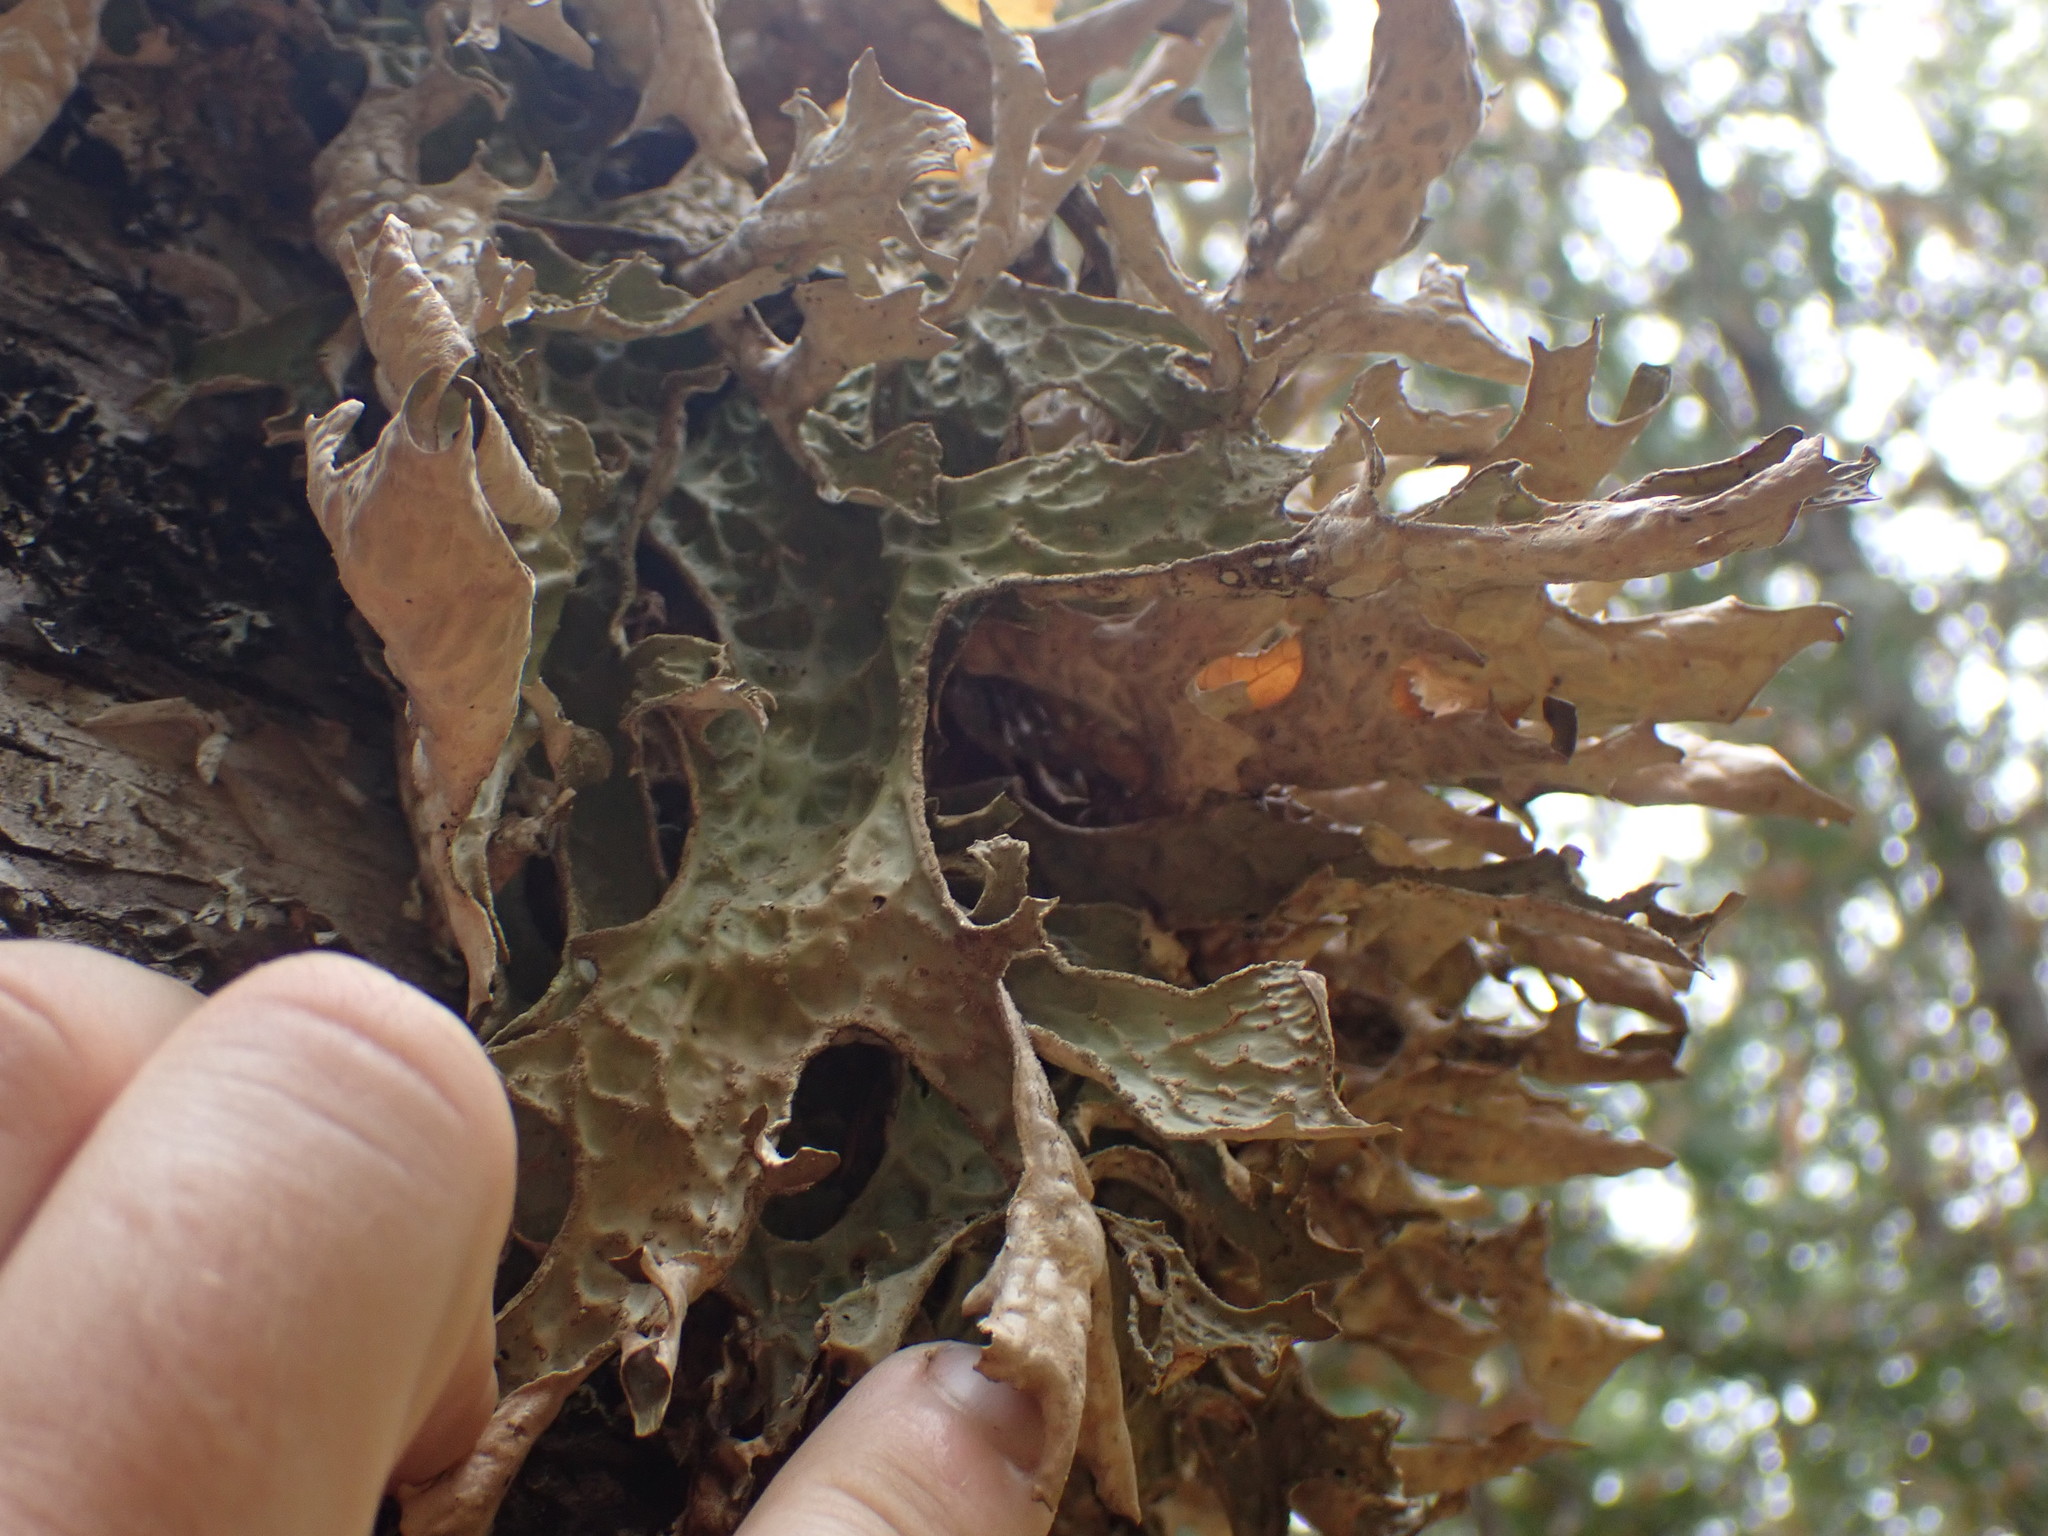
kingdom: Fungi
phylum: Ascomycota
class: Lecanoromycetes
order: Peltigerales
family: Lobariaceae
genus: Lobaria
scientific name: Lobaria pulmonaria
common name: Lungwort
